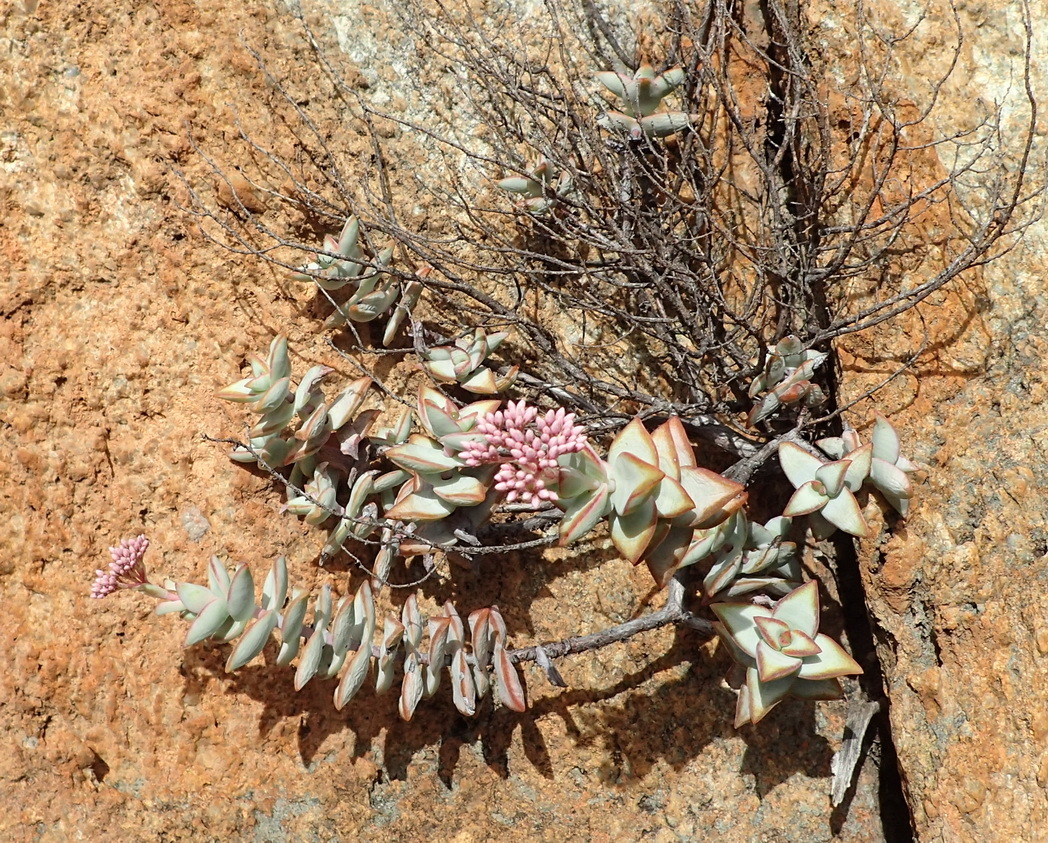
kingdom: Plantae
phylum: Tracheophyta
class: Magnoliopsida
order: Saxifragales
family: Crassulaceae
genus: Crassula
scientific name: Crassula rupestris
